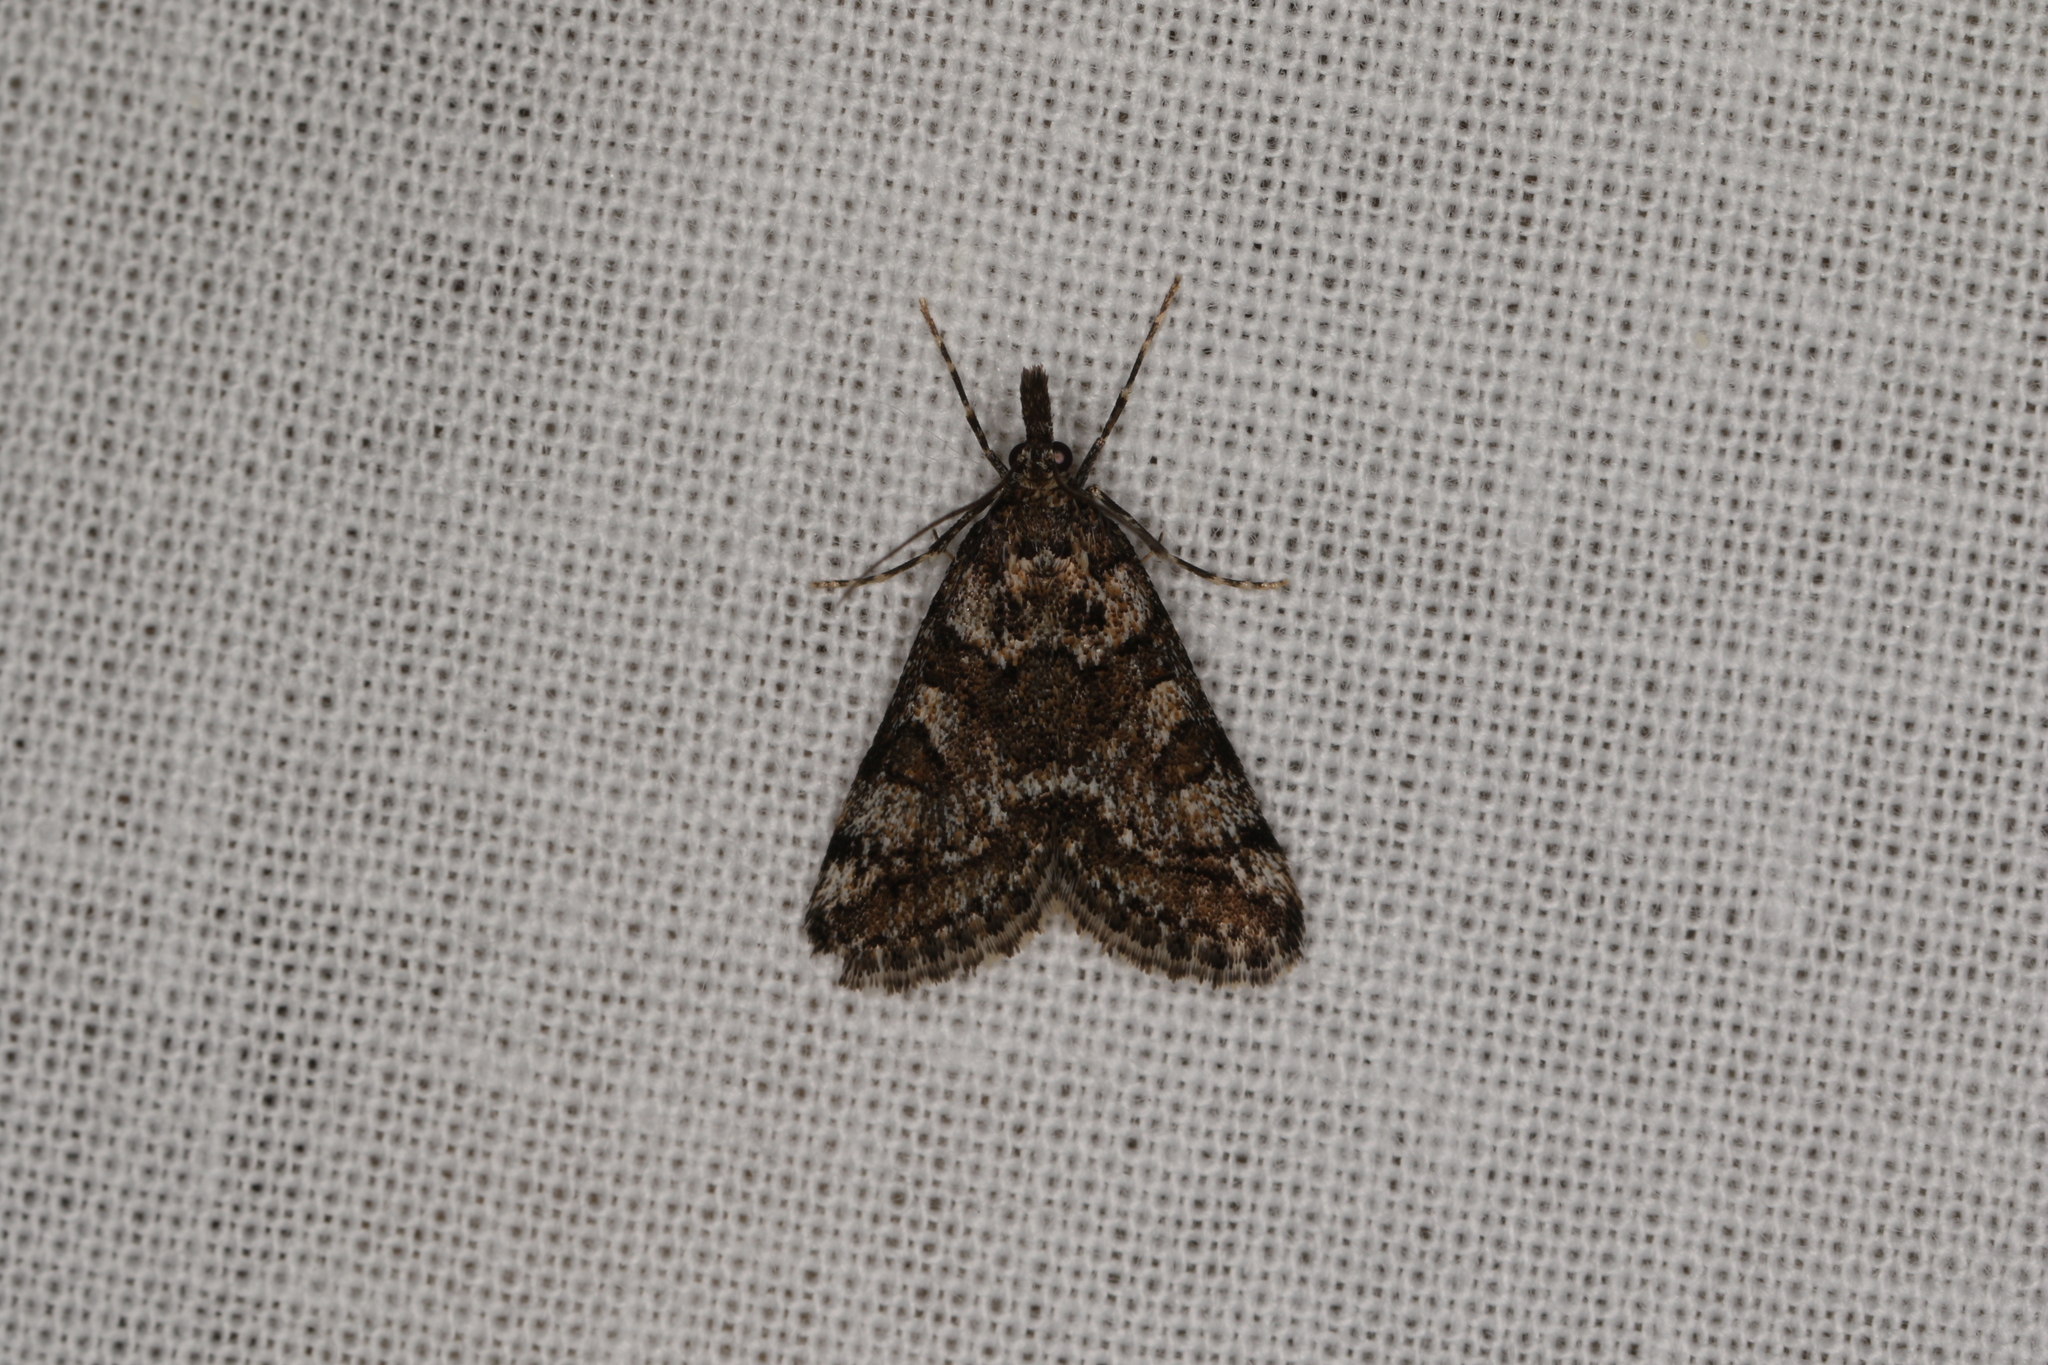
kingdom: Animalia
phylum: Arthropoda
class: Insecta
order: Lepidoptera
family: Crambidae
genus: Phanomorpha
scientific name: Phanomorpha dapsilis
